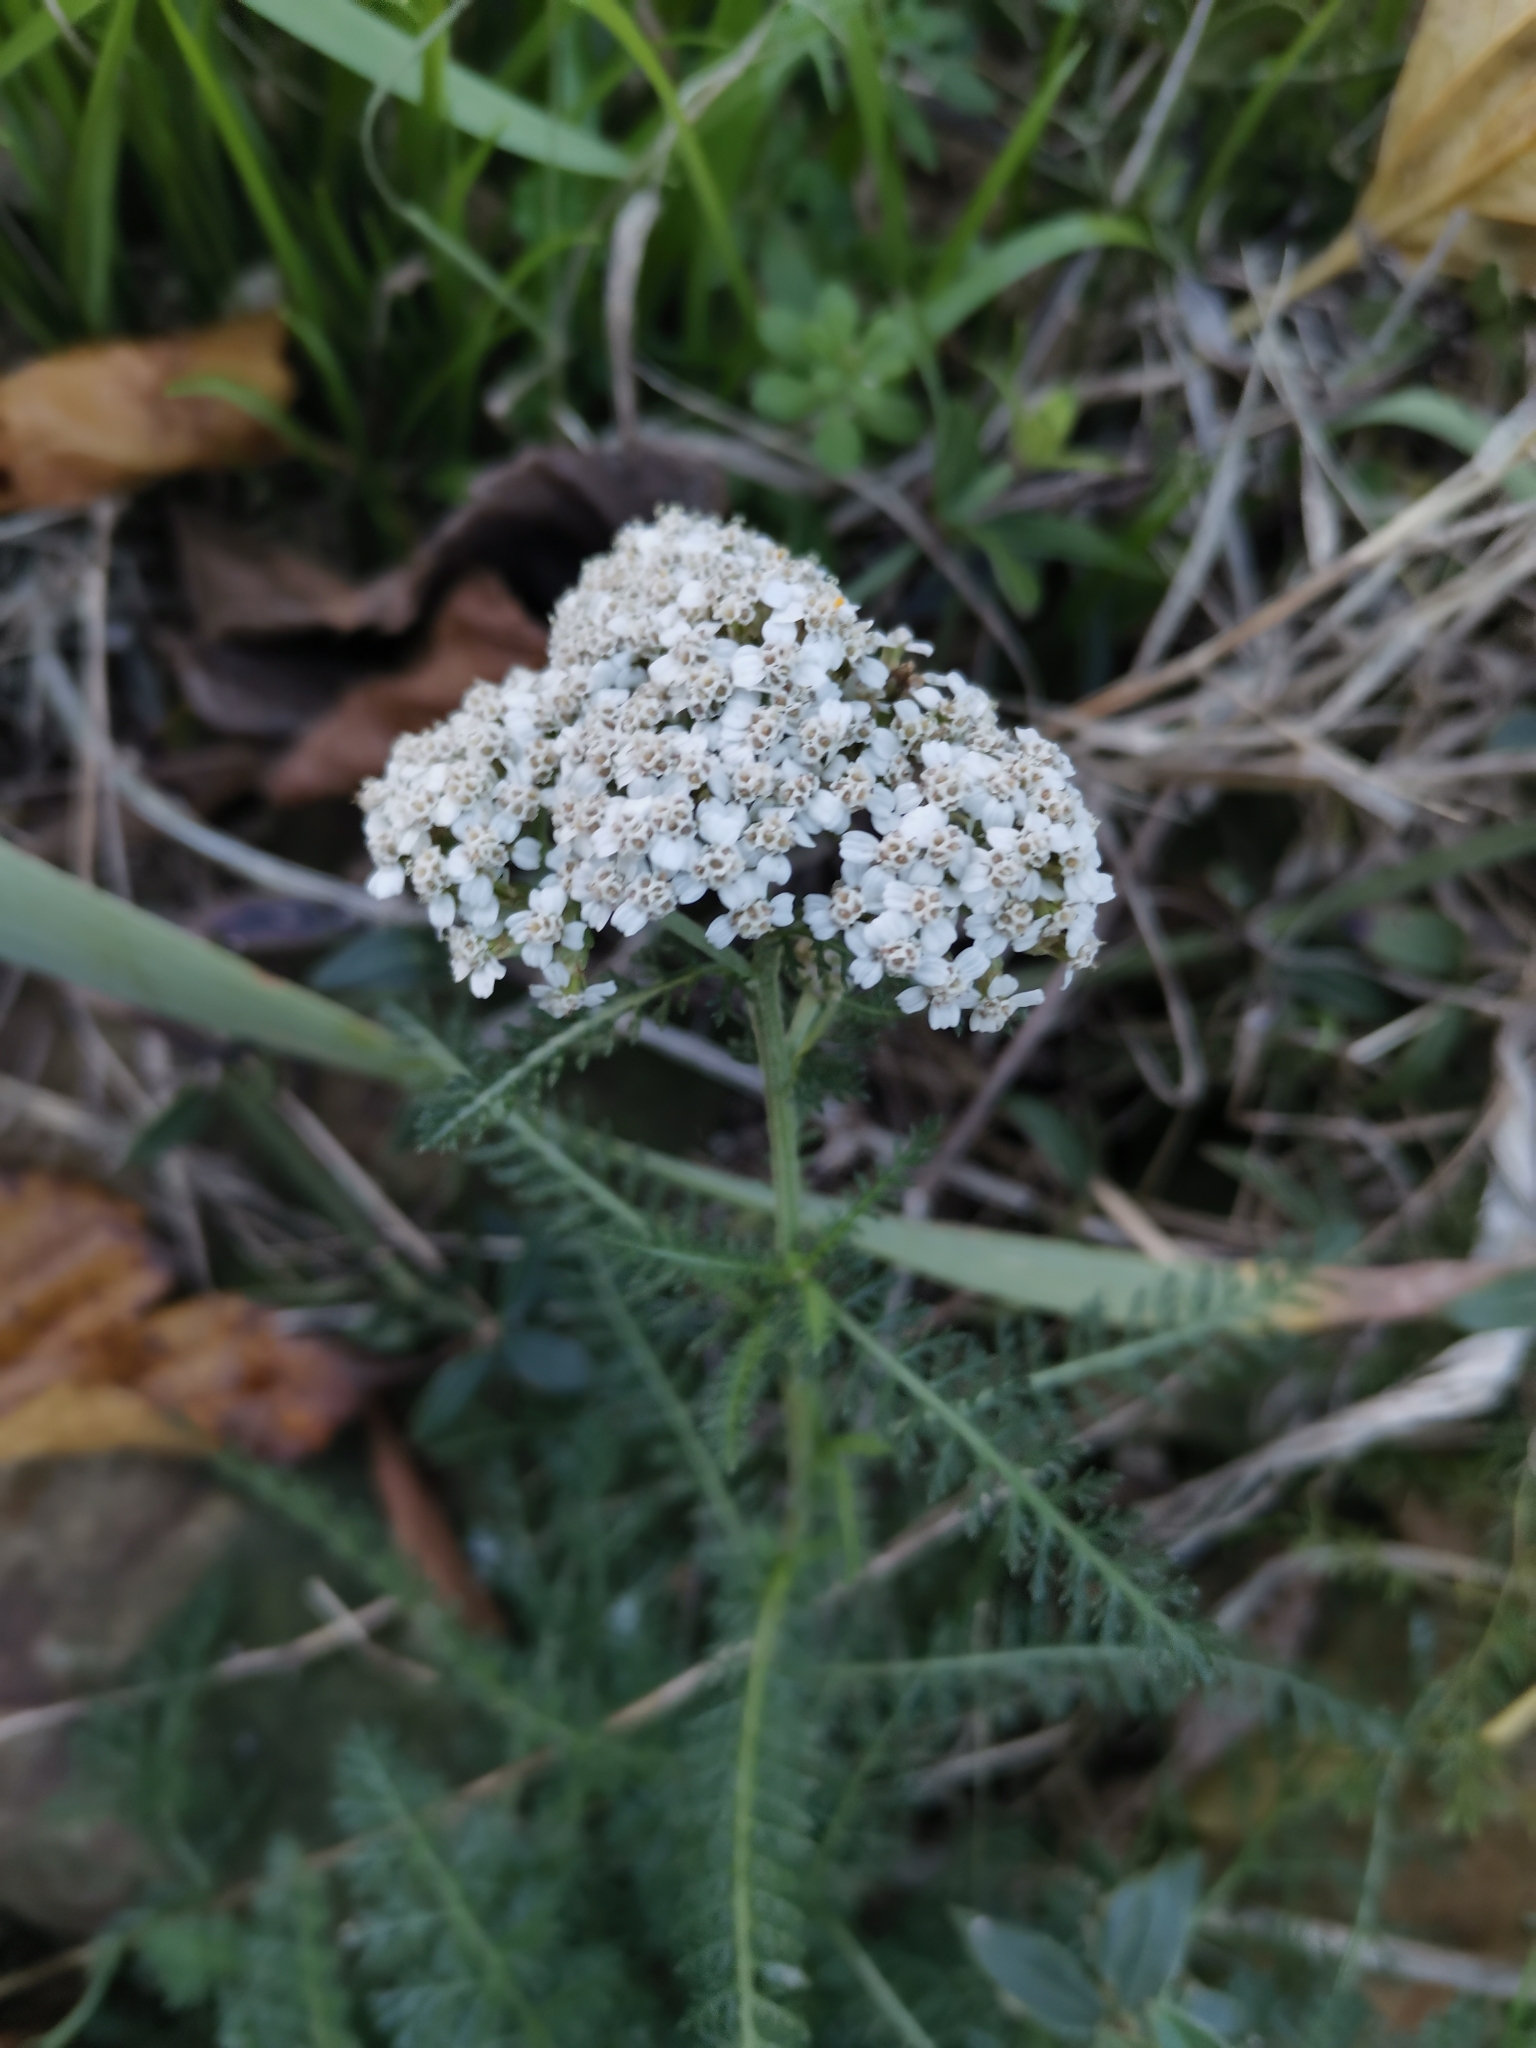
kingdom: Plantae
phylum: Tracheophyta
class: Magnoliopsida
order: Asterales
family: Asteraceae
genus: Achillea
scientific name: Achillea millefolium
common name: Yarrow
